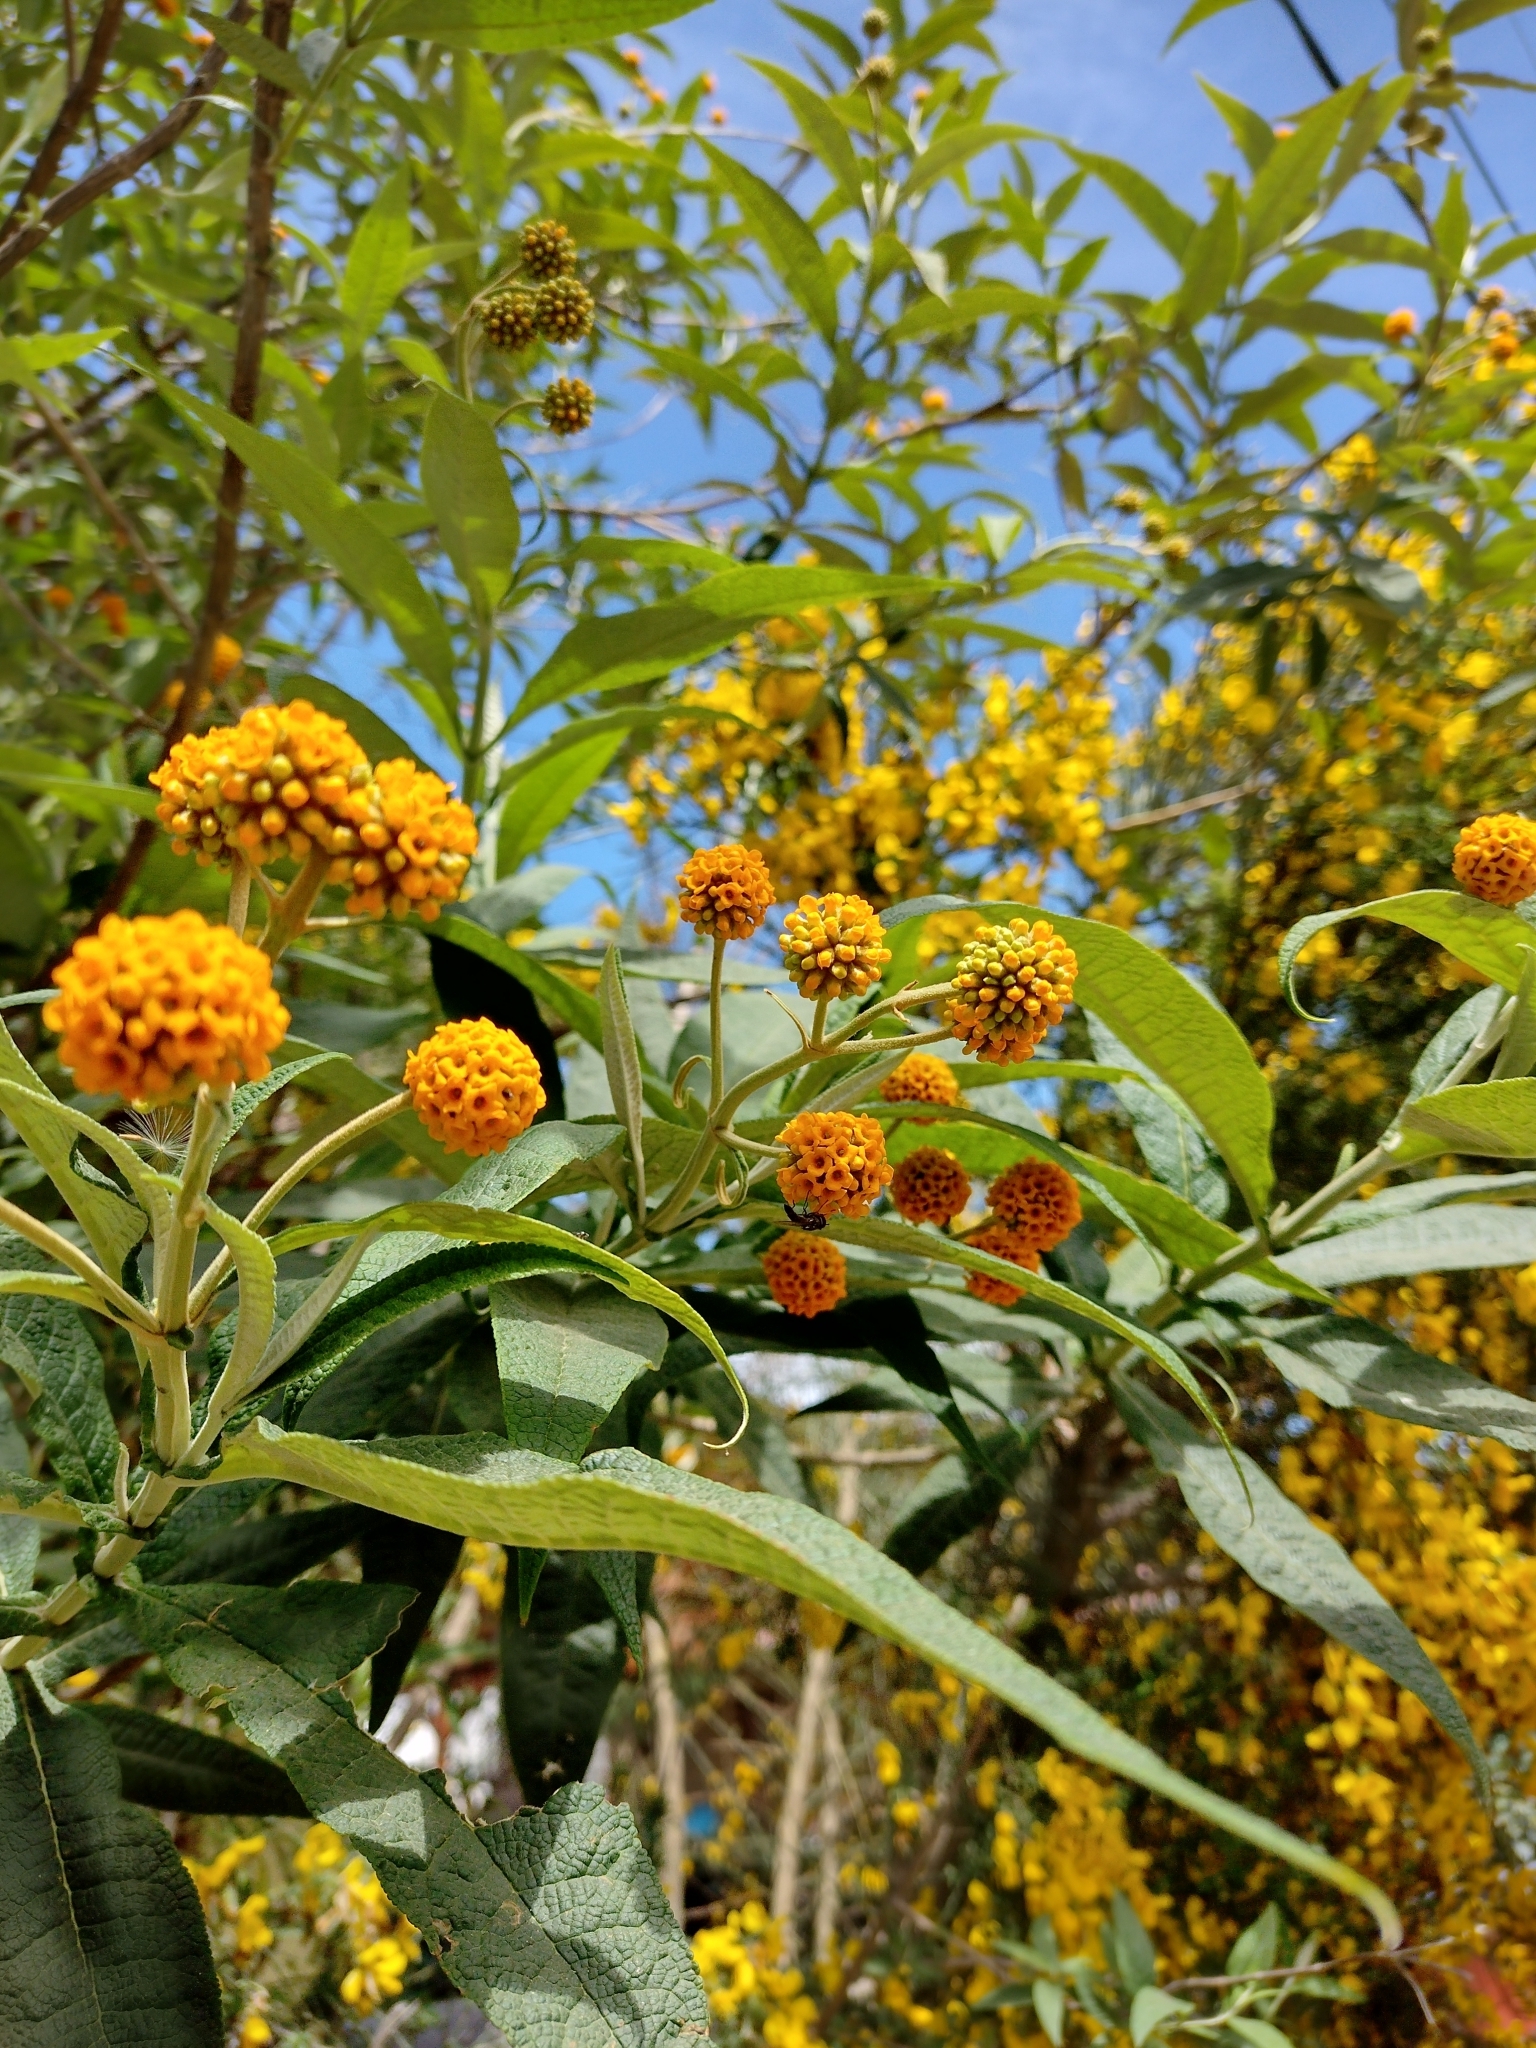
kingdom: Plantae
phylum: Tracheophyta
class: Magnoliopsida
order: Lamiales
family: Scrophulariaceae
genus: Buddleja
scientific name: Buddleja globosa
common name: Orange-ball-tree
